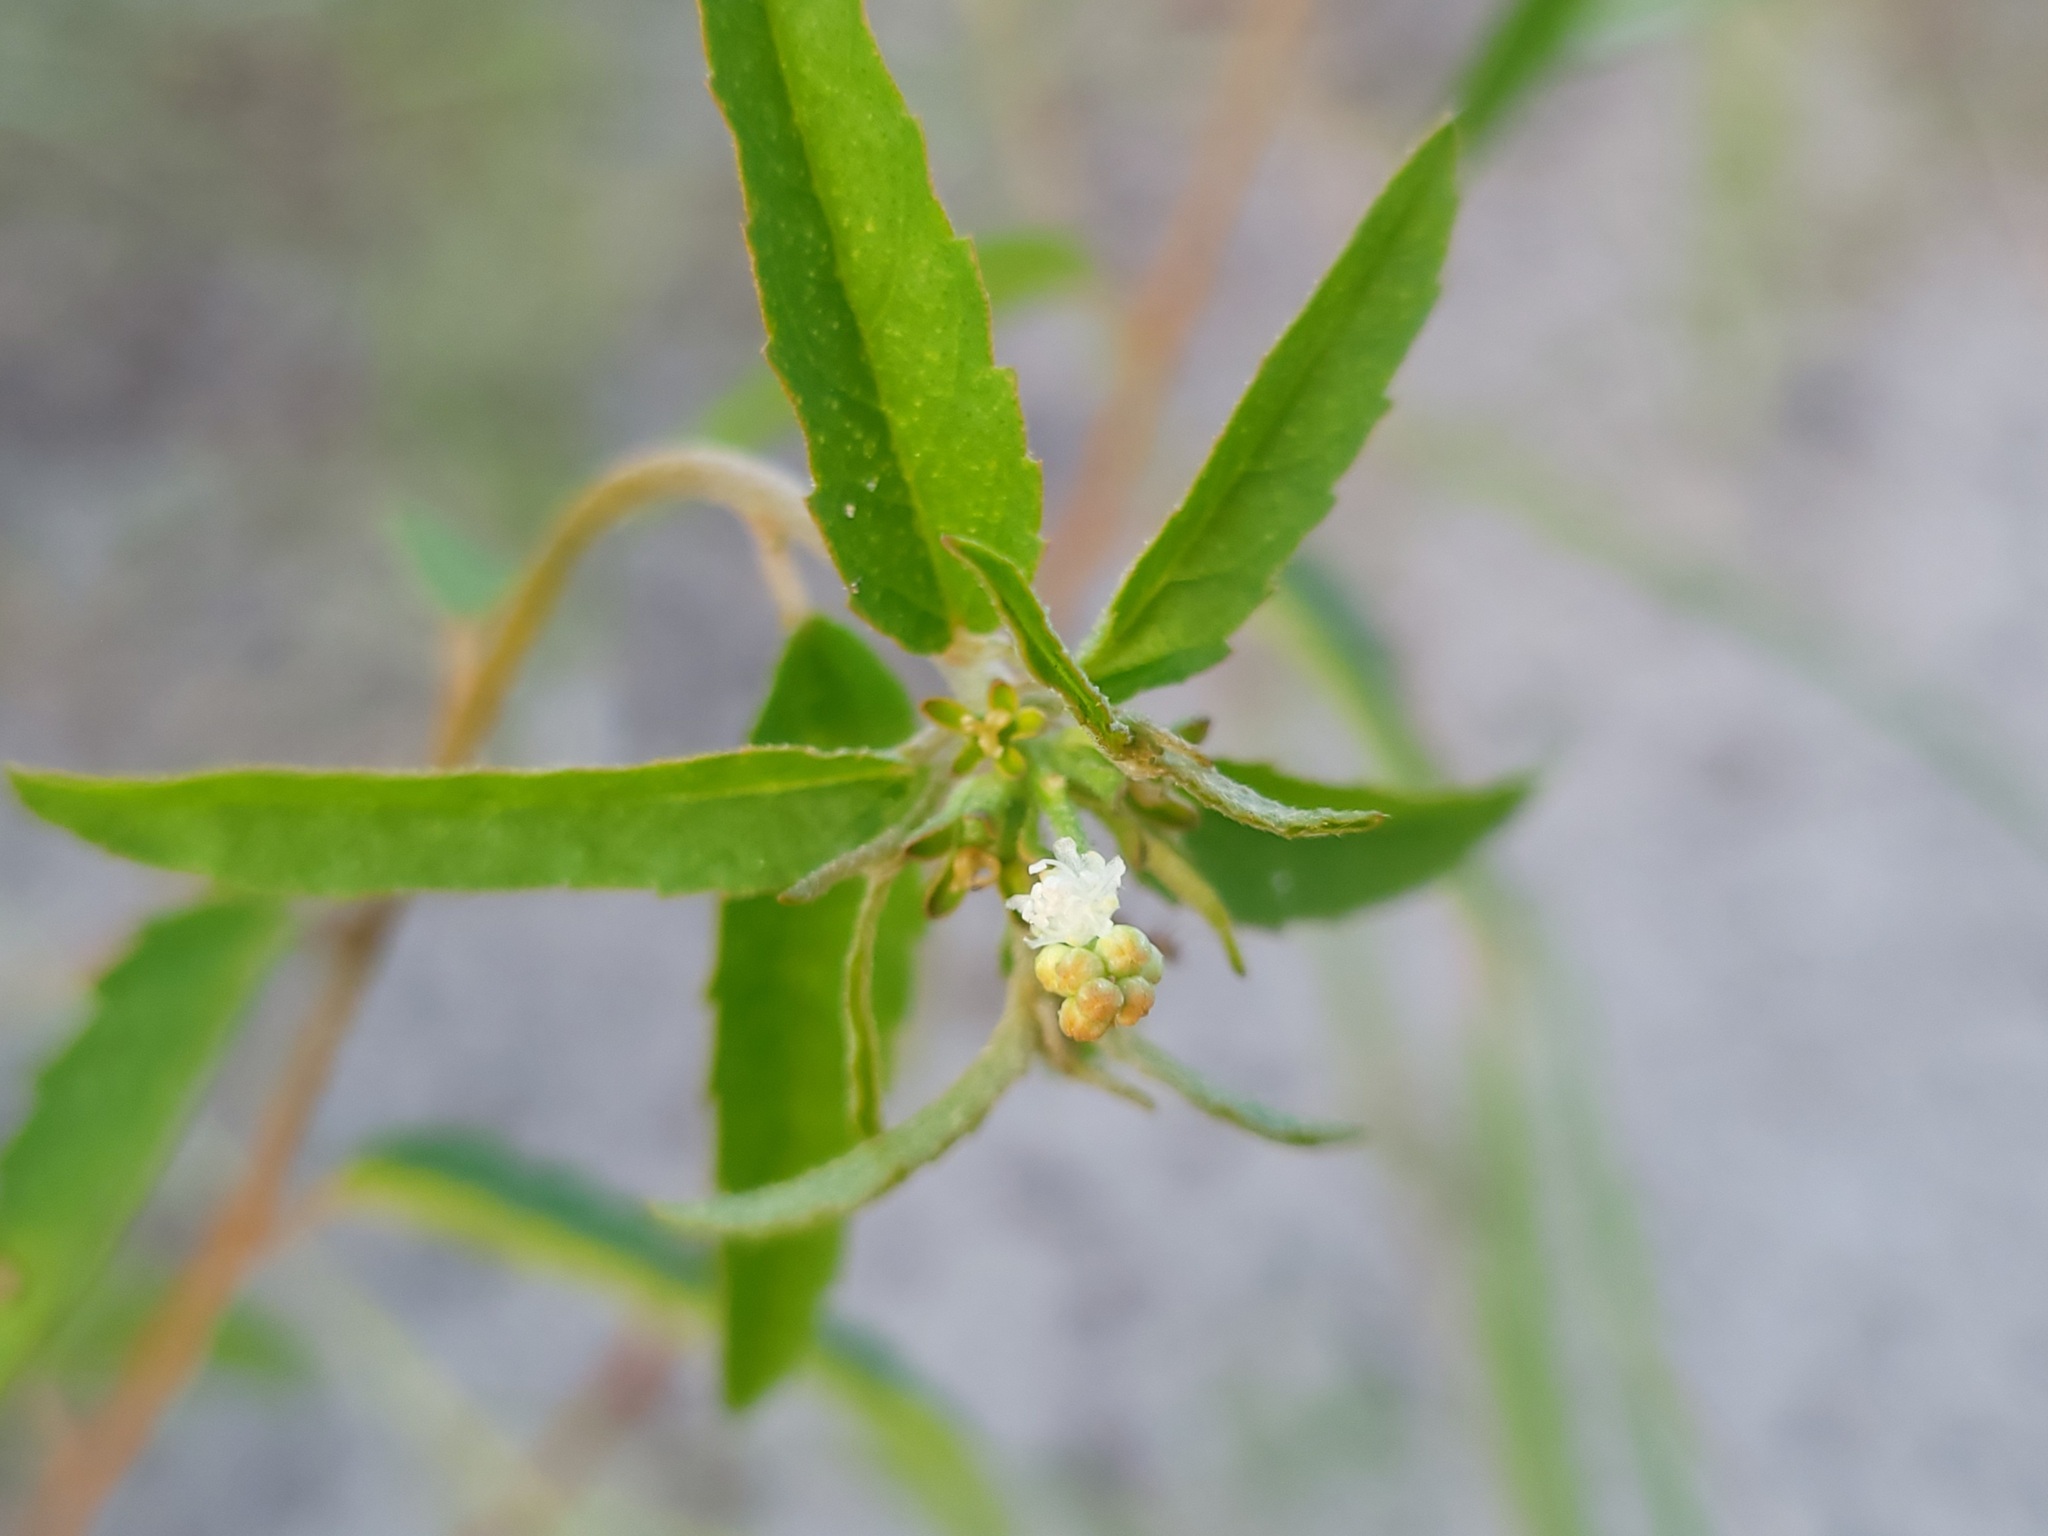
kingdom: Plantae
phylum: Tracheophyta
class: Magnoliopsida
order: Malpighiales
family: Euphorbiaceae
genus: Croton
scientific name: Croton glandulosus
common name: Tropic croton
